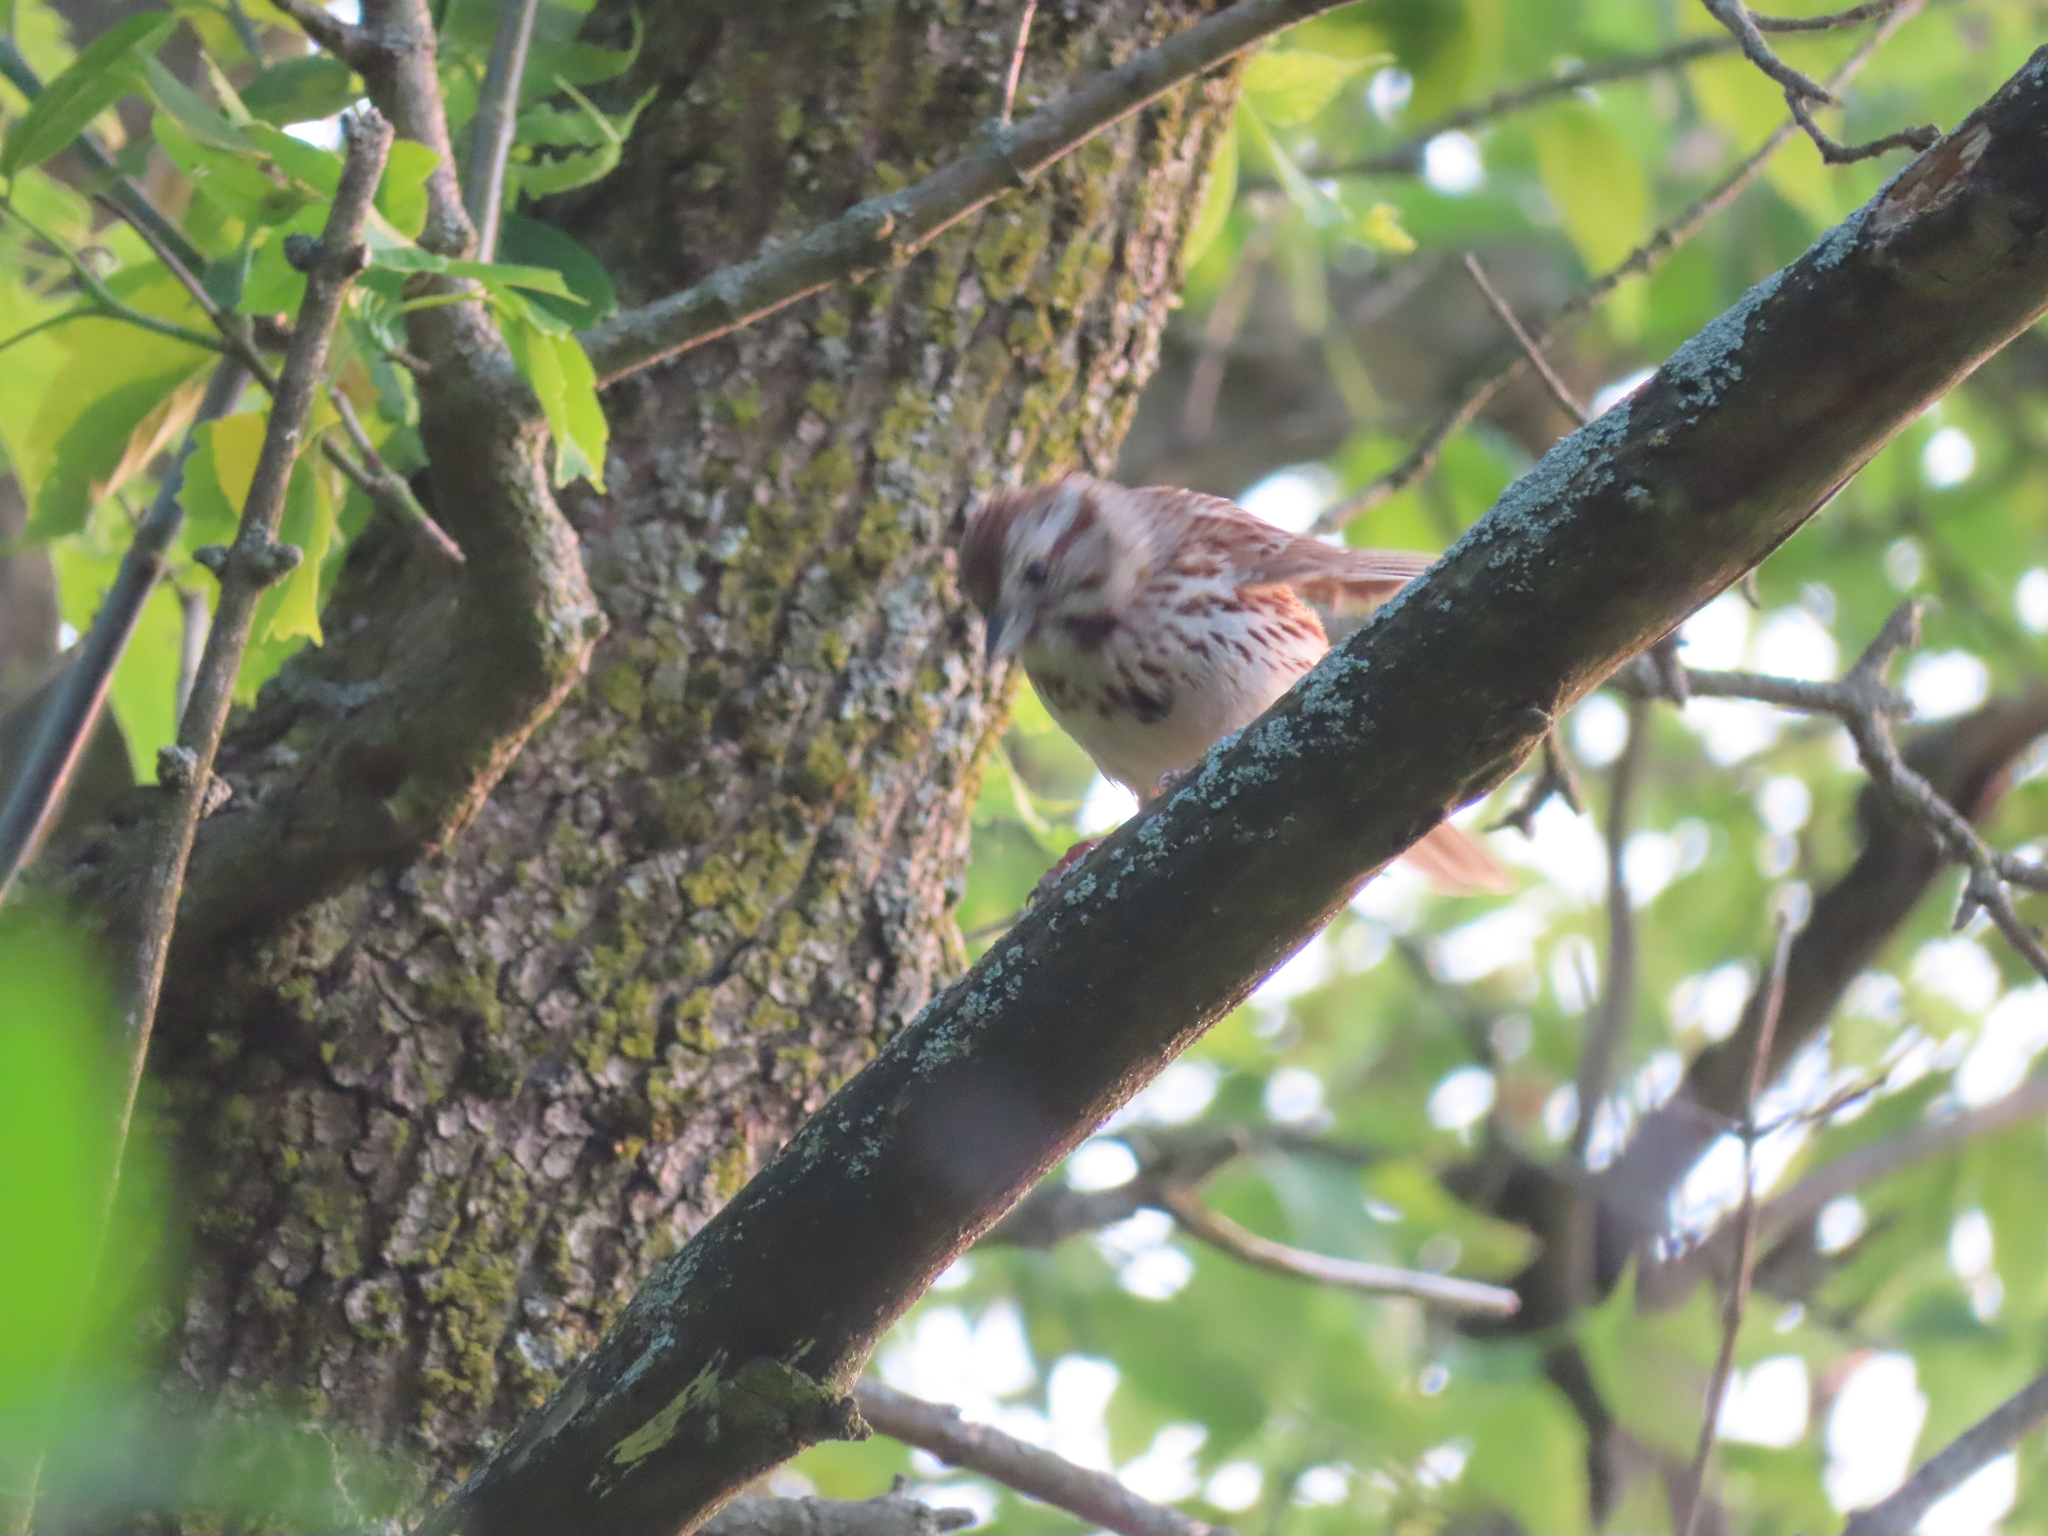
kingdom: Animalia
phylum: Chordata
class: Aves
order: Passeriformes
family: Passerellidae
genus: Melospiza
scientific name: Melospiza melodia
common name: Song sparrow
